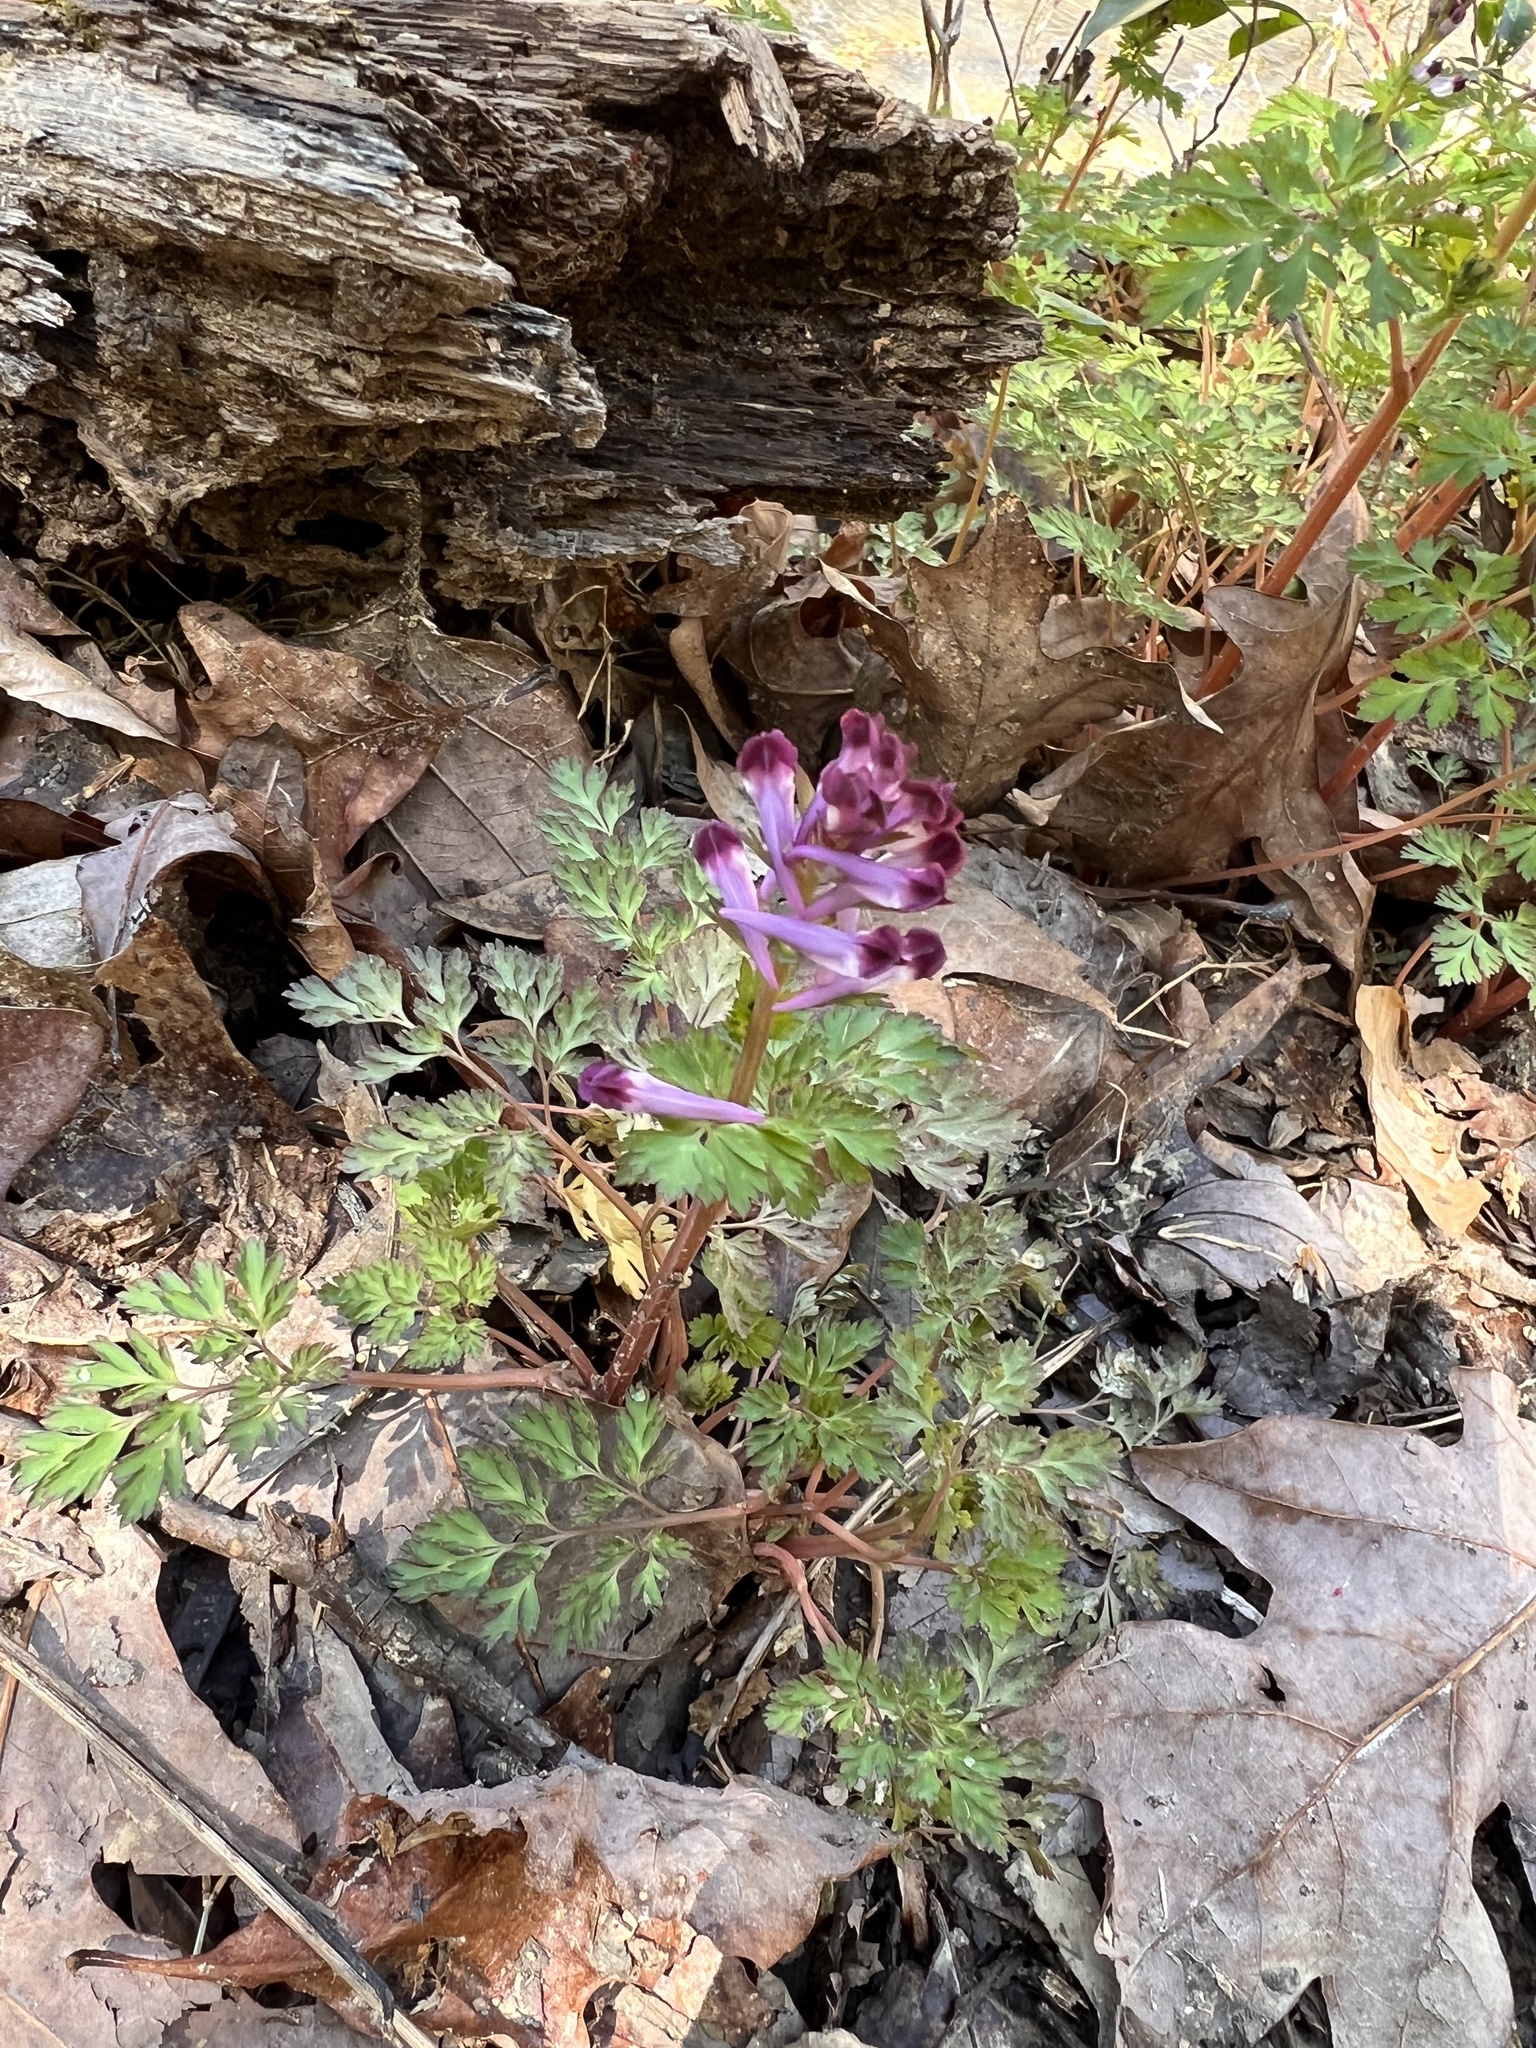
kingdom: Plantae
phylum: Tracheophyta
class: Magnoliopsida
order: Ranunculales
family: Papaveraceae
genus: Corydalis
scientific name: Corydalis incisa
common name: Incised fumewort
